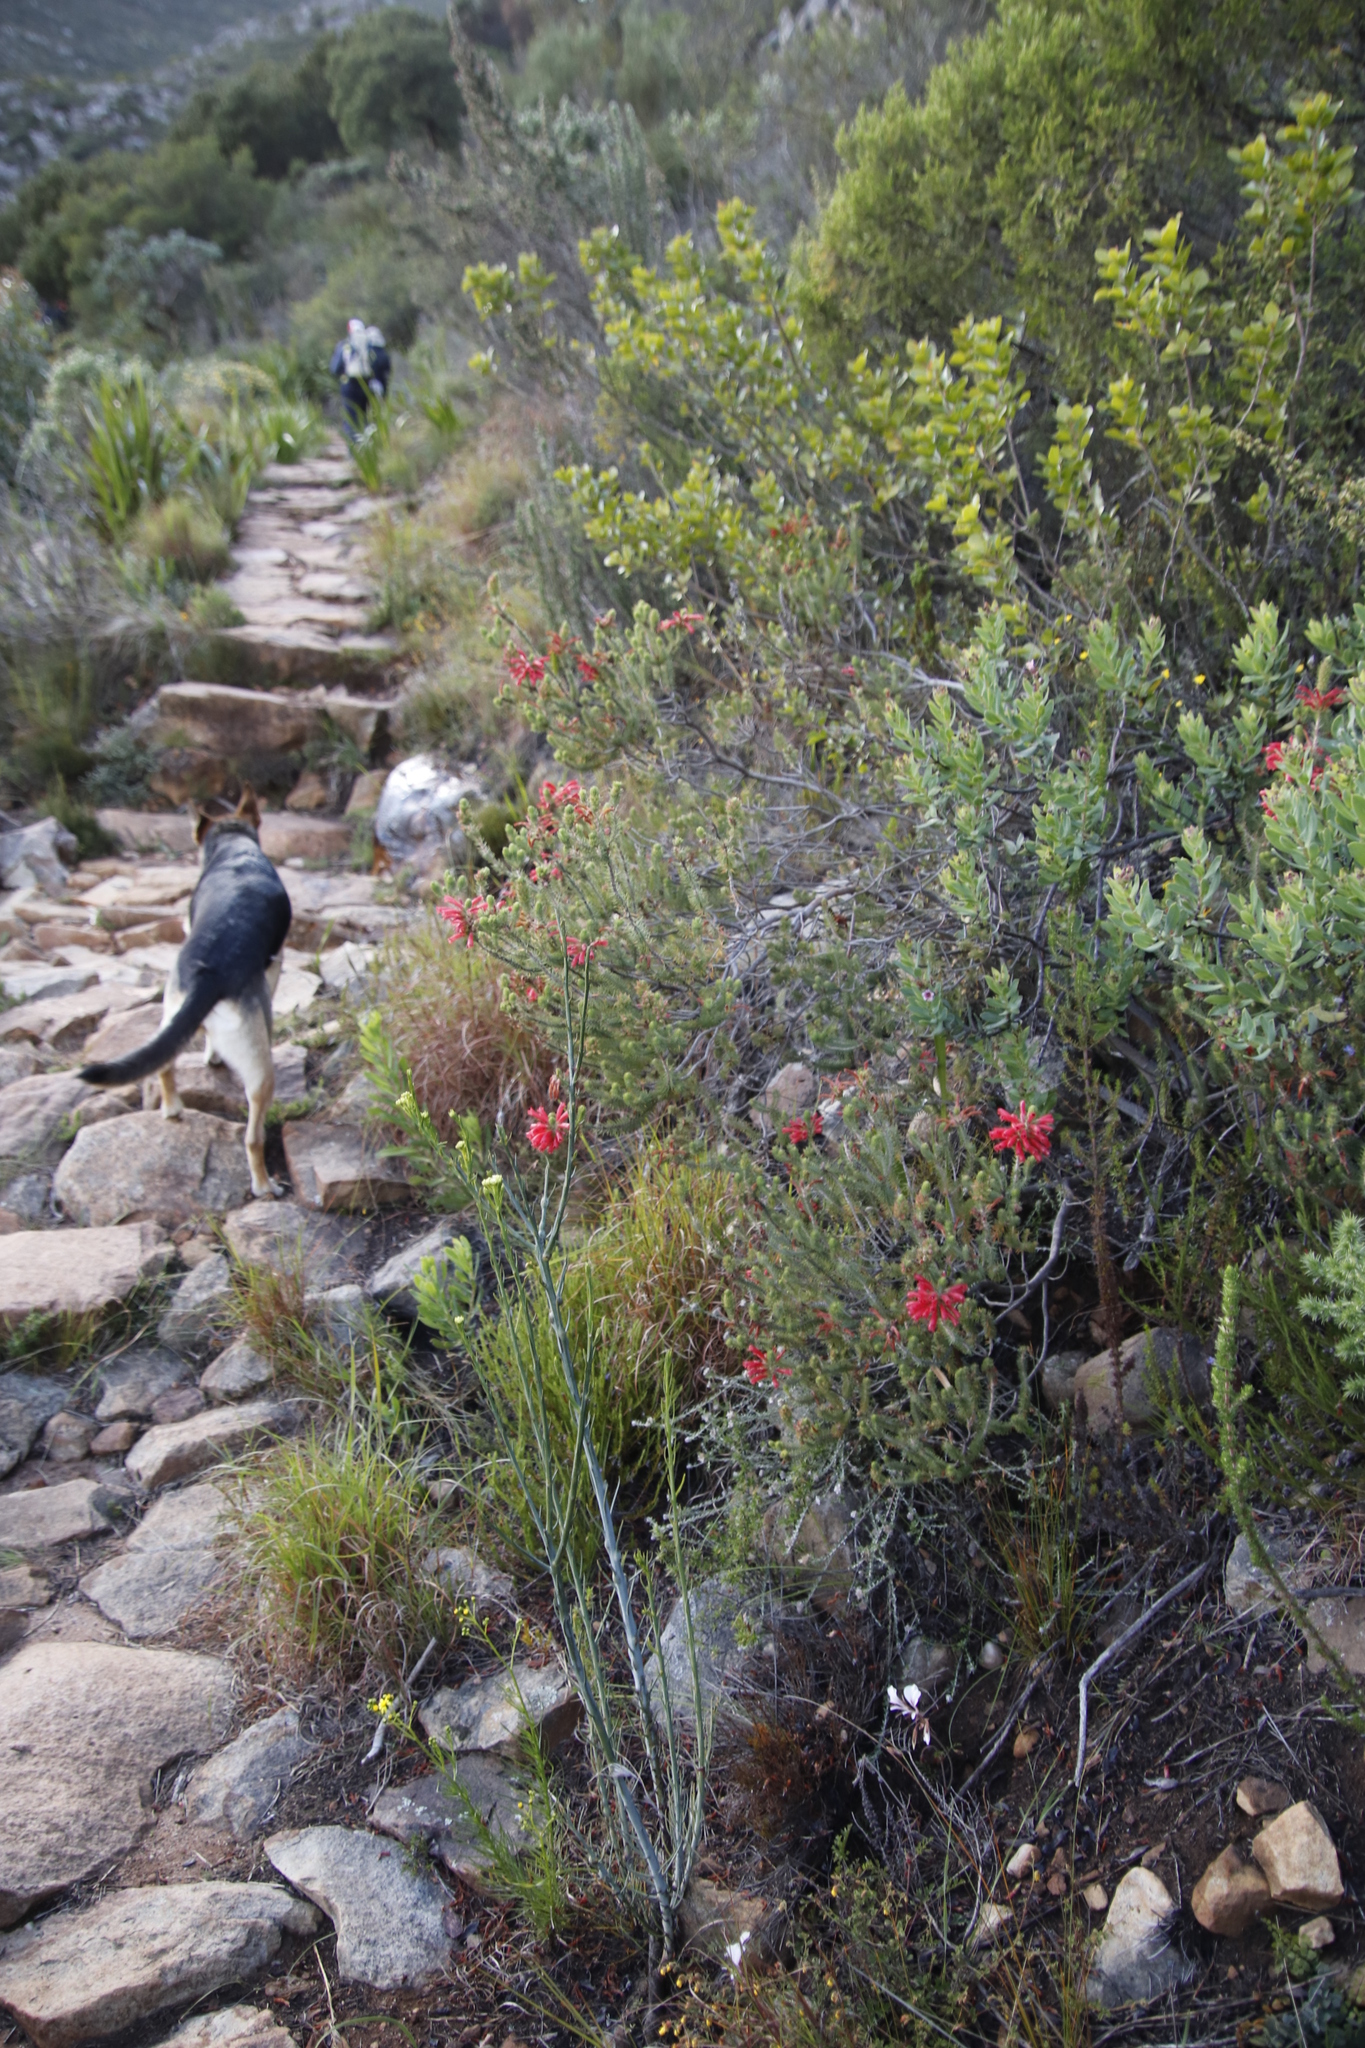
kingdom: Plantae
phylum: Tracheophyta
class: Magnoliopsida
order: Ericales
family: Ericaceae
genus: Erica
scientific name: Erica abietina
